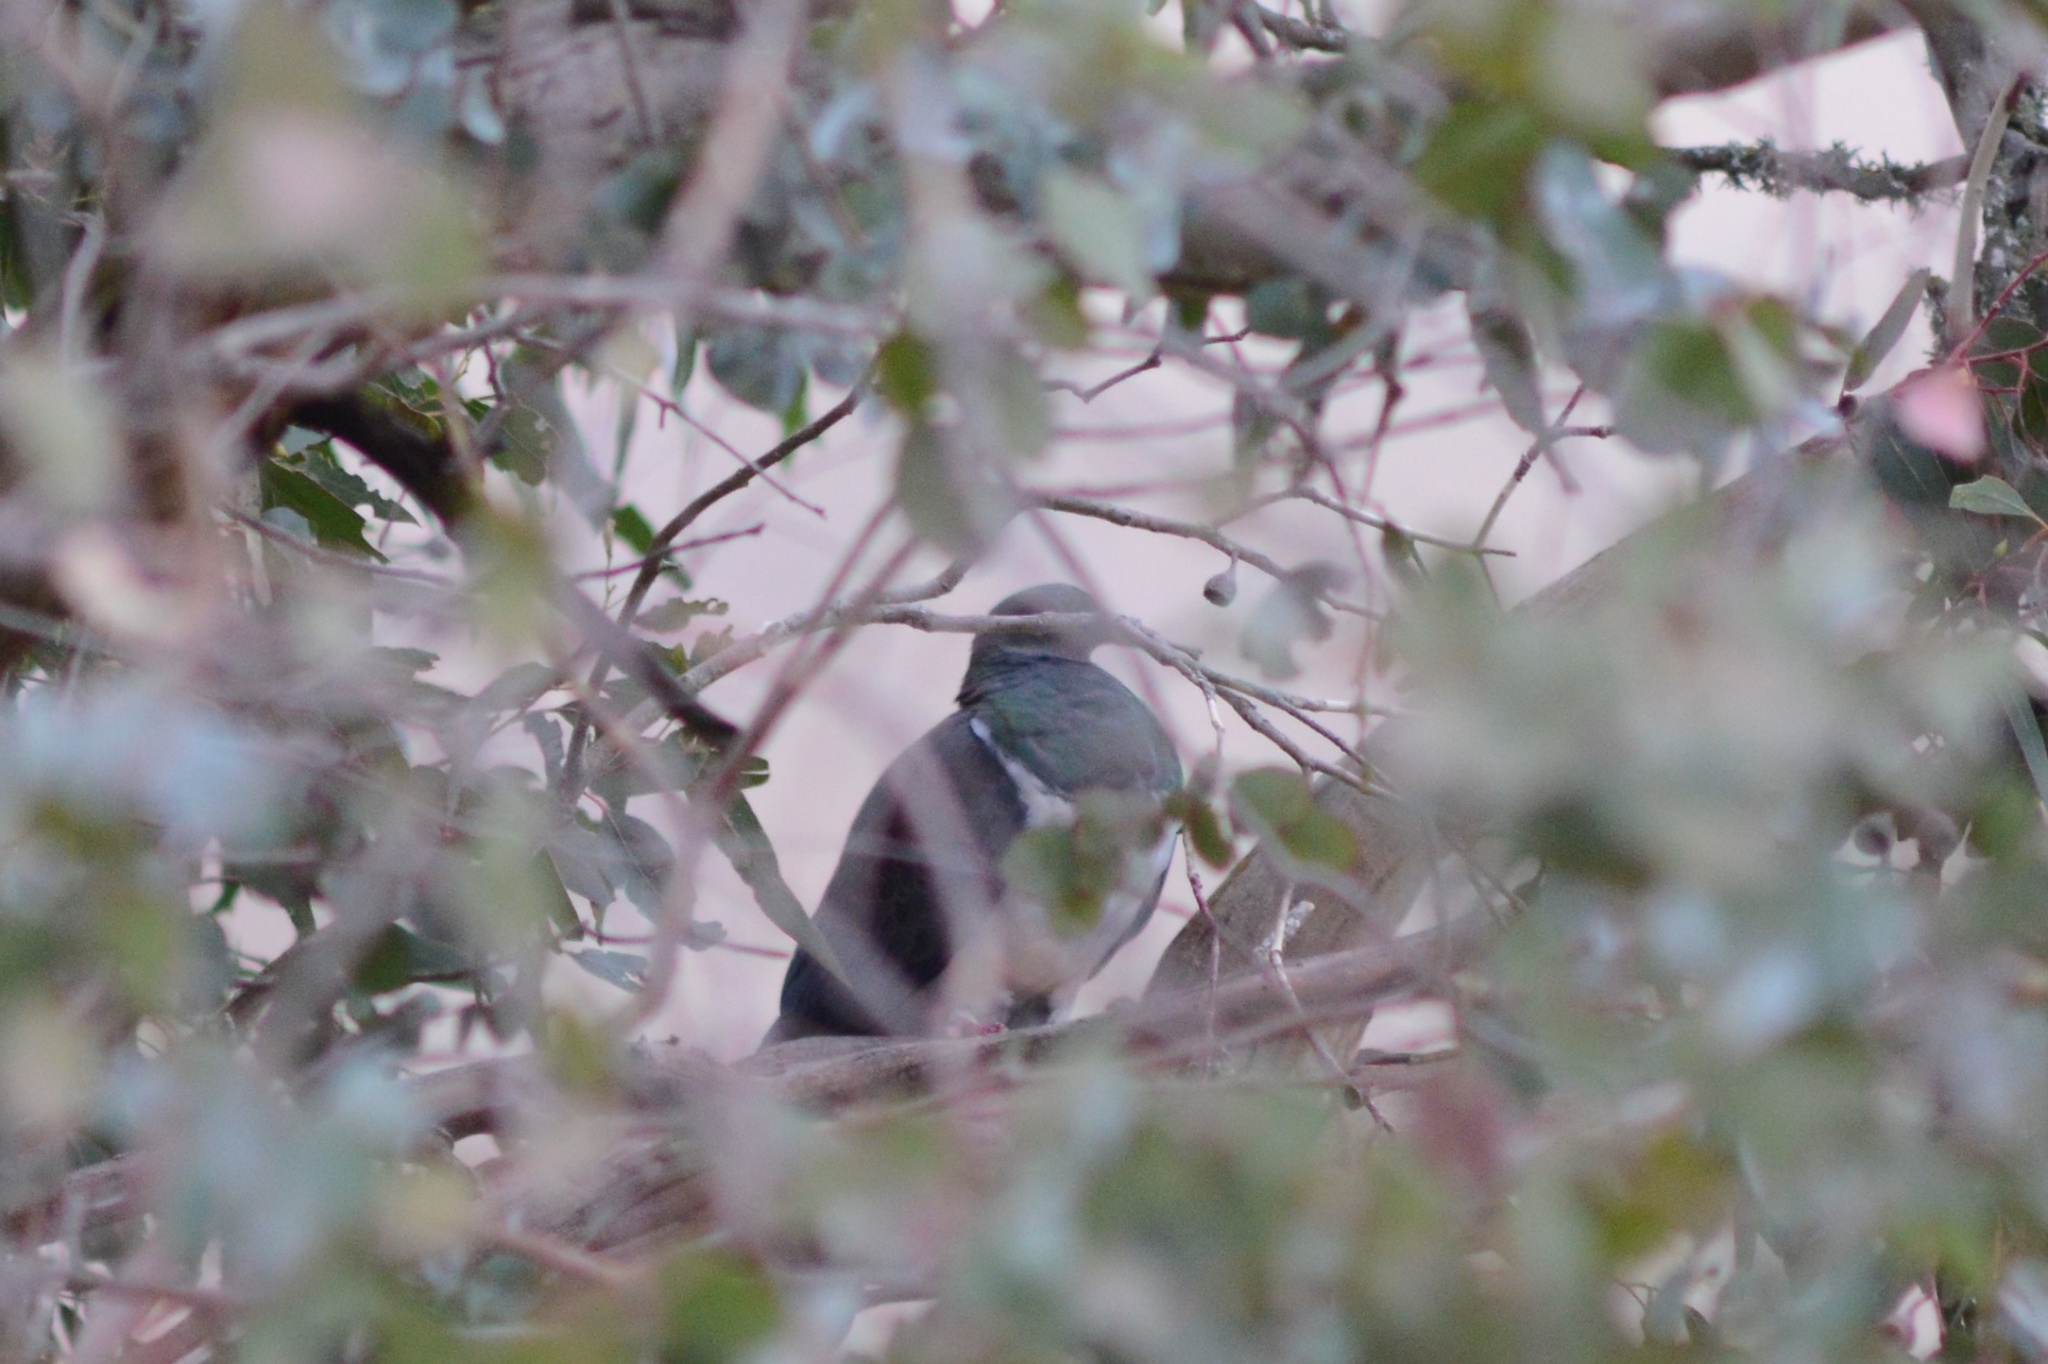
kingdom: Animalia
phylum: Chordata
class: Aves
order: Columbiformes
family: Columbidae
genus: Hemiphaga
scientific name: Hemiphaga novaeseelandiae
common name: New zealand pigeon
